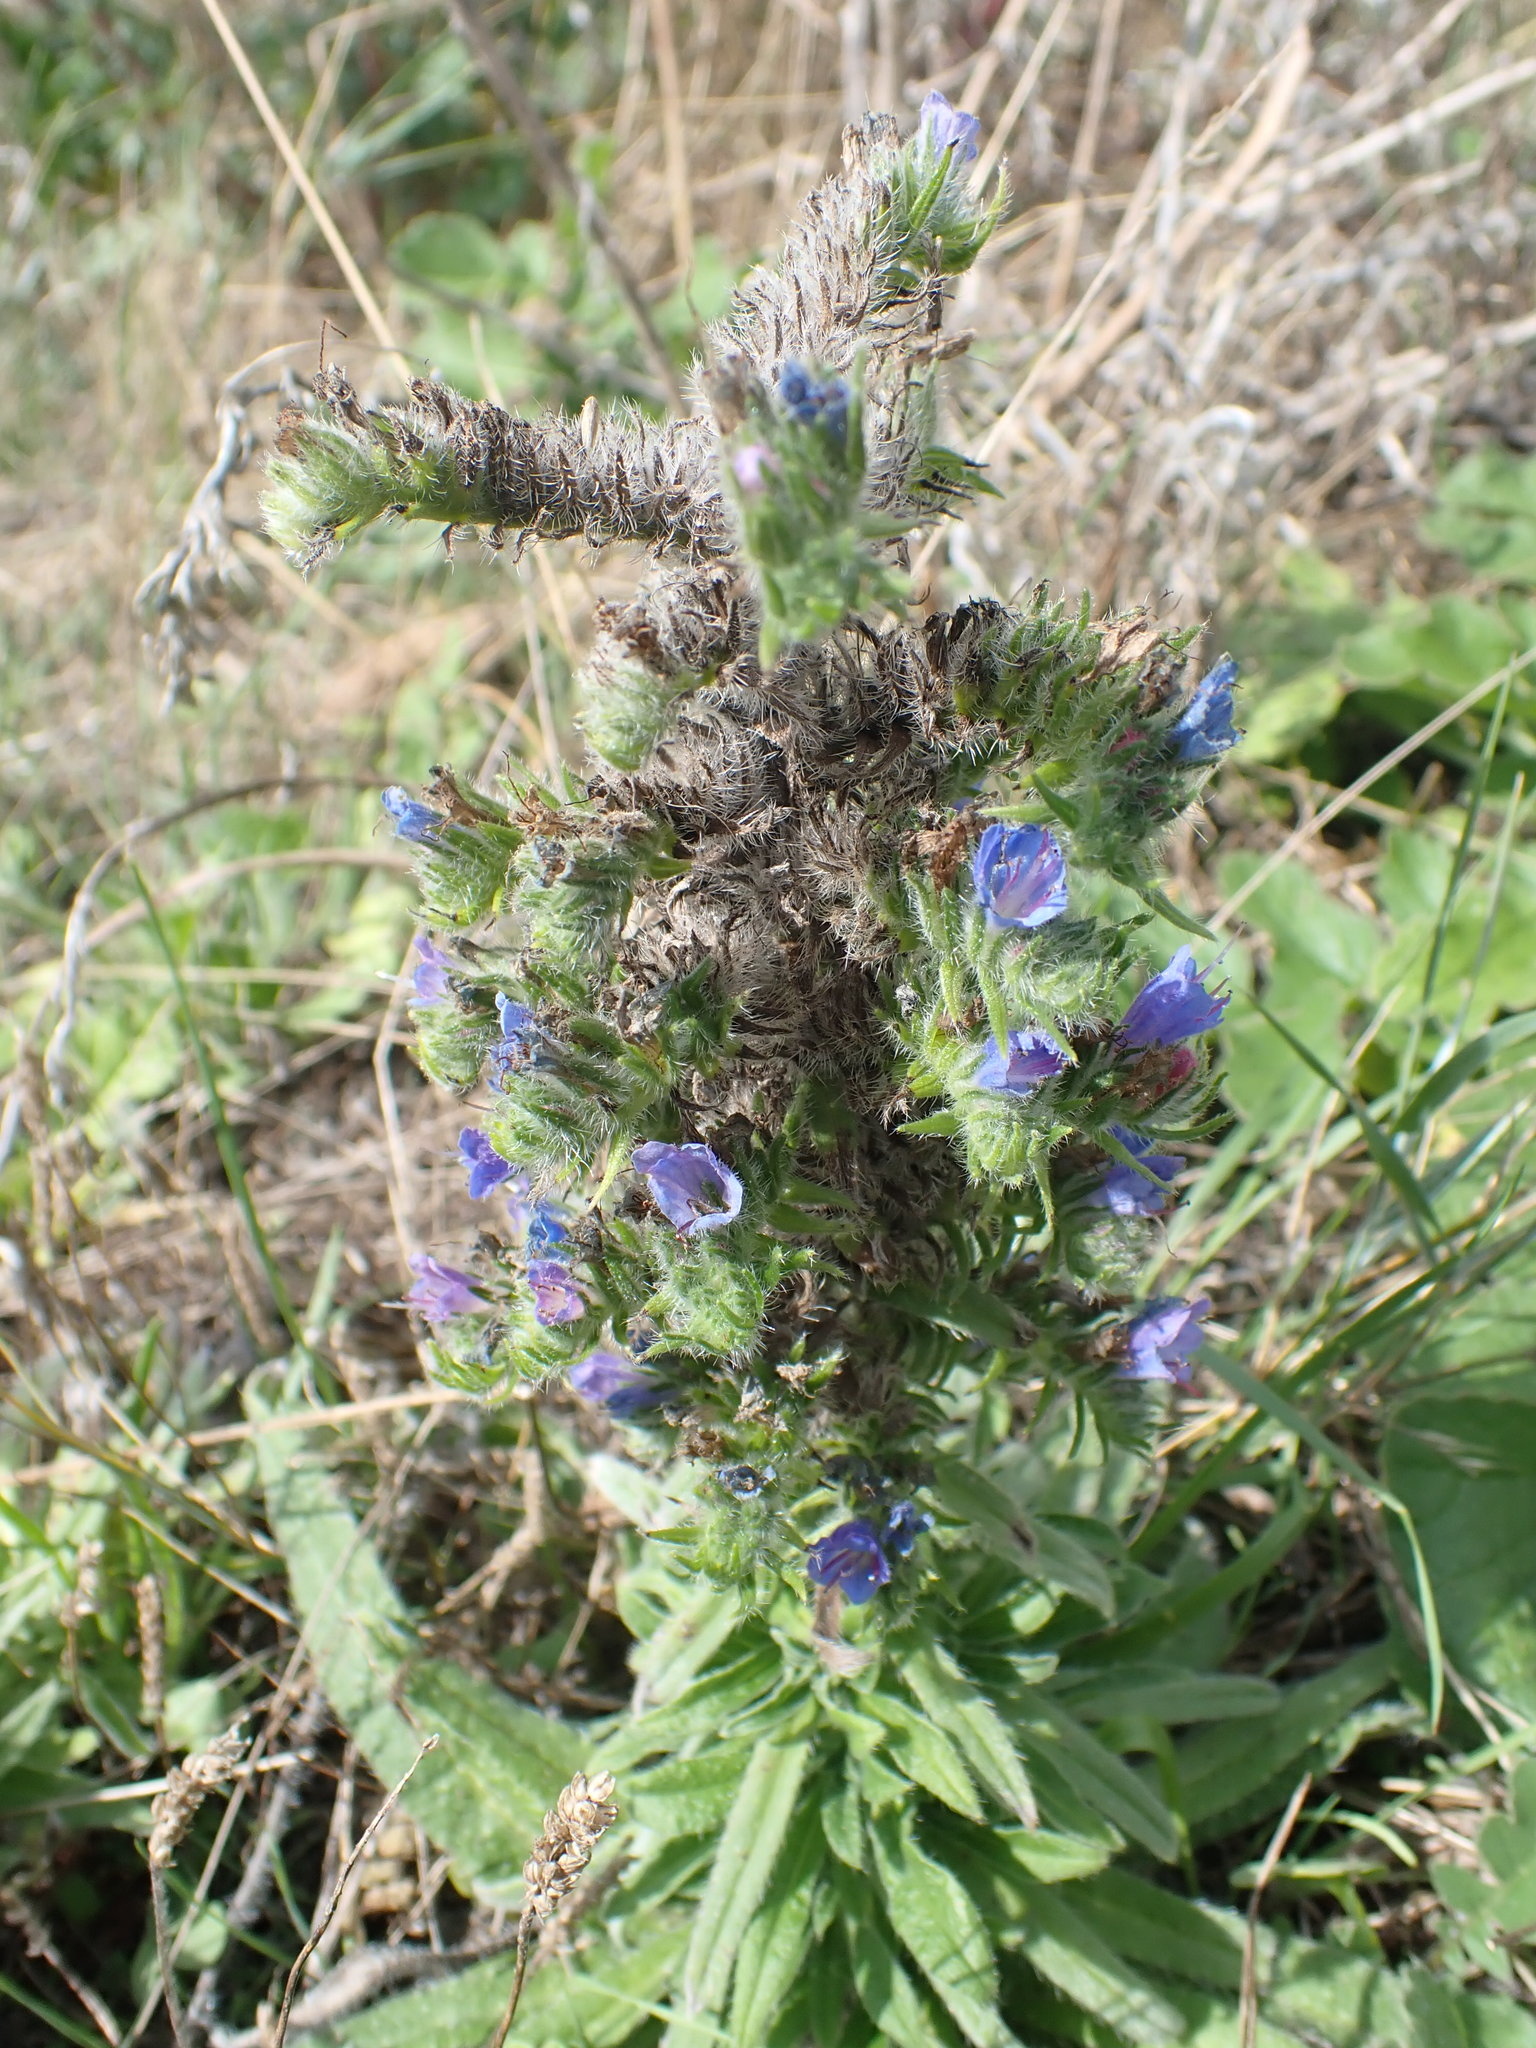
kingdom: Plantae
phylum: Tracheophyta
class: Magnoliopsida
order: Boraginales
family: Boraginaceae
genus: Echium
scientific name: Echium vulgare
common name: Common viper's bugloss
